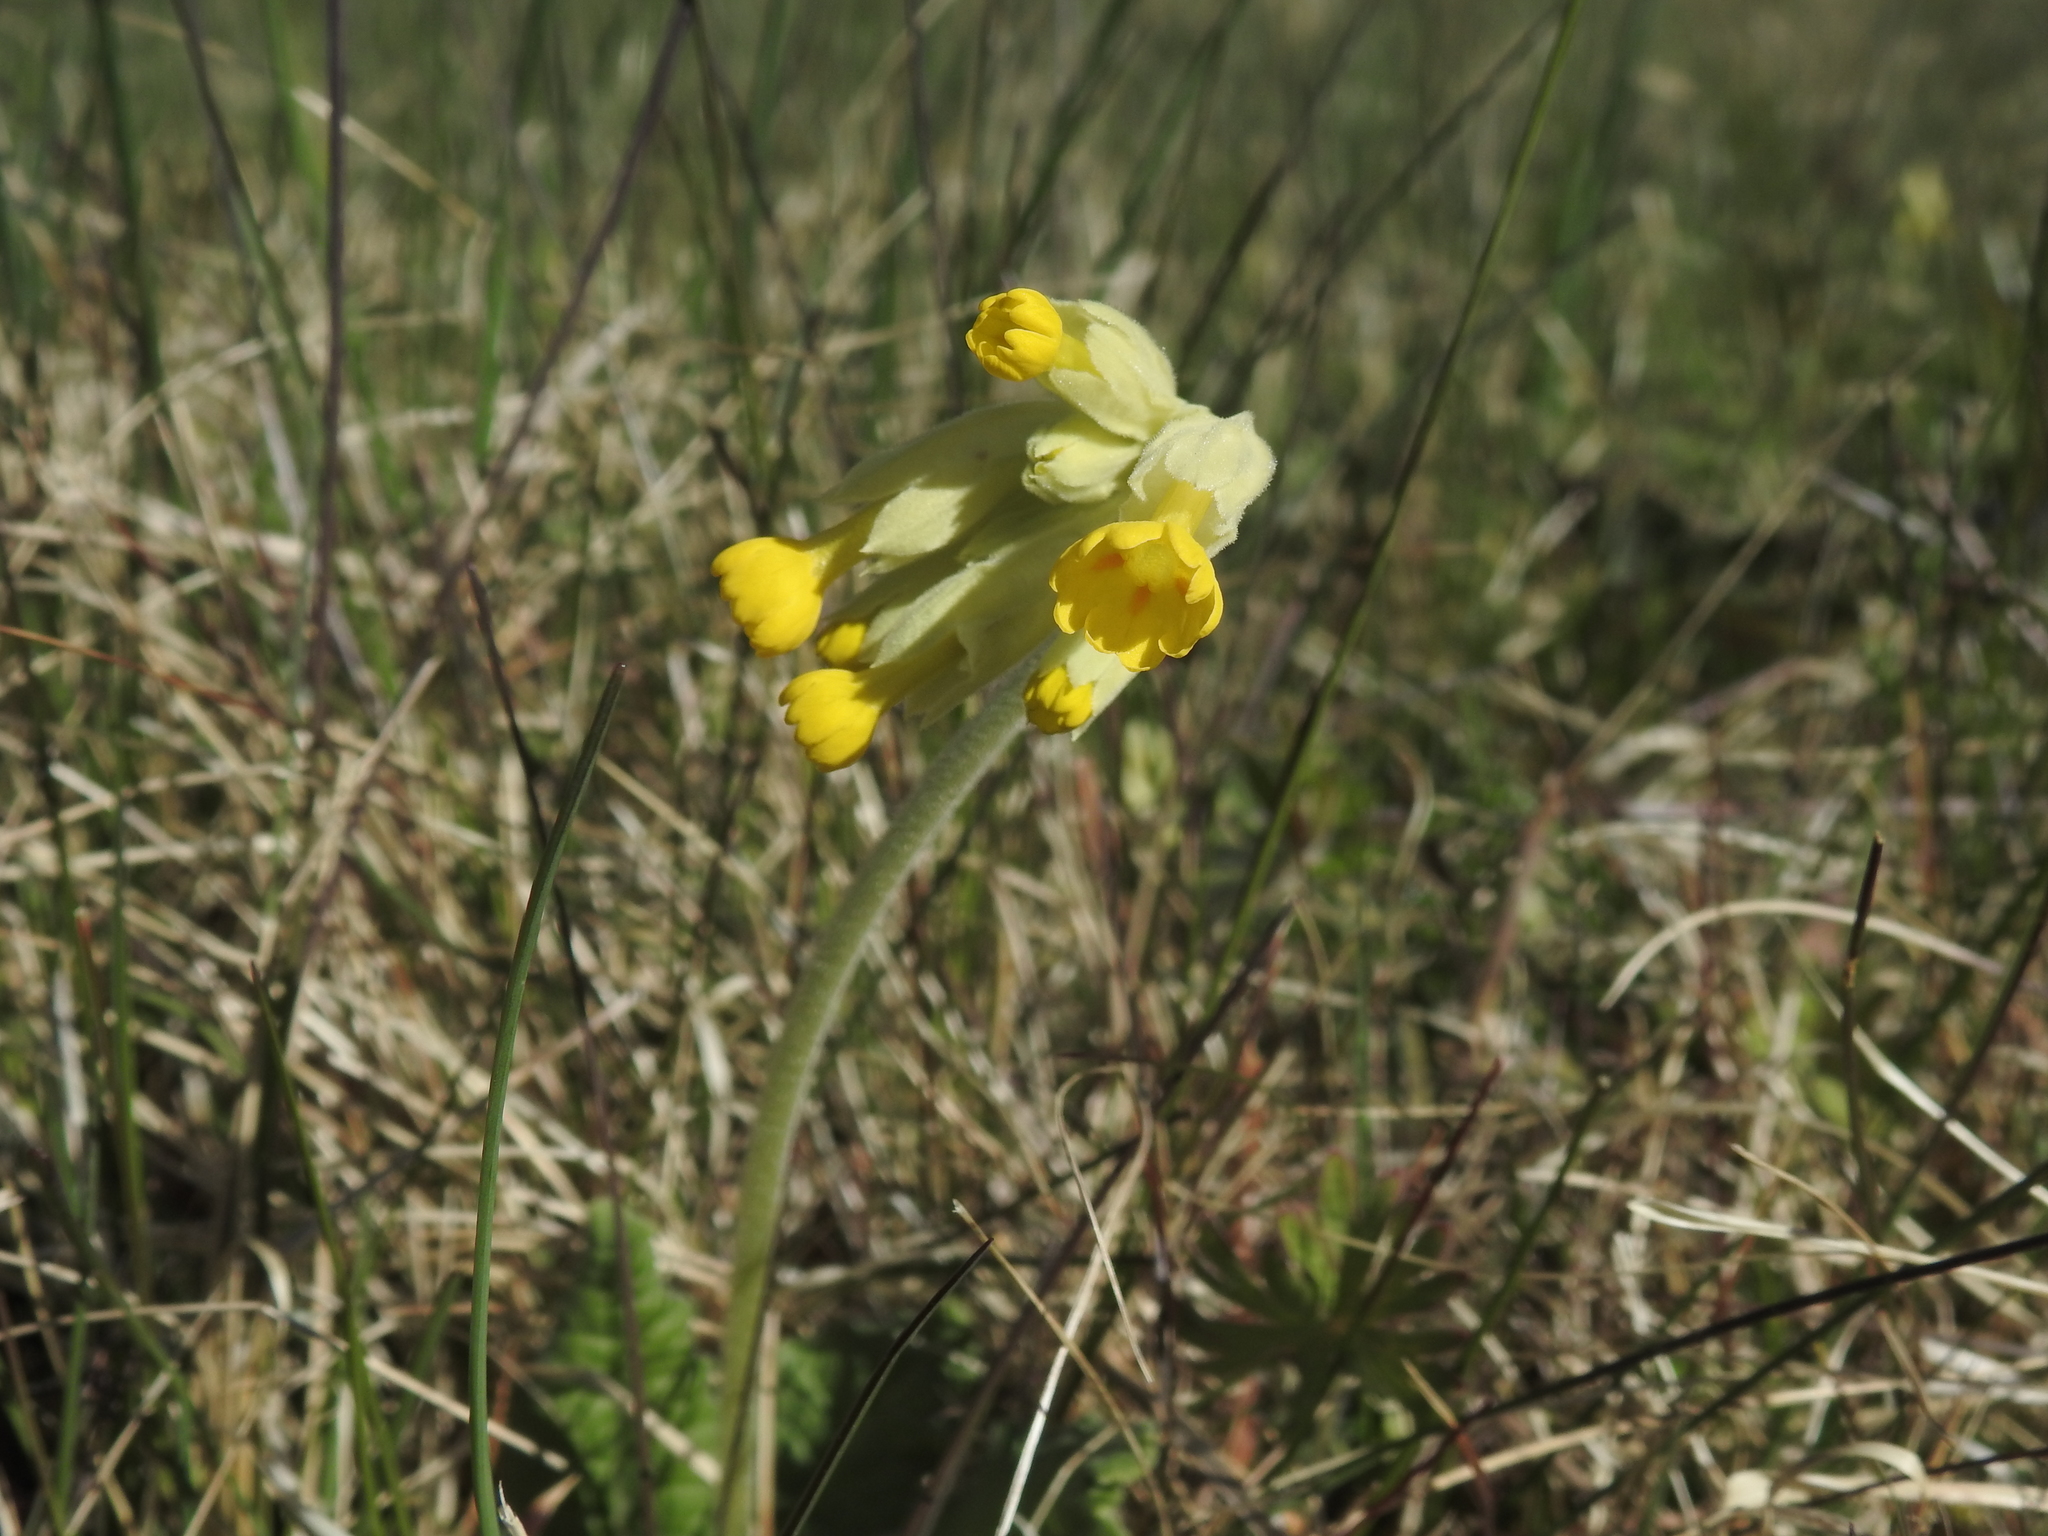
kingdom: Plantae
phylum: Tracheophyta
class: Magnoliopsida
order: Ericales
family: Primulaceae
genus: Primula
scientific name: Primula veris
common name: Cowslip
